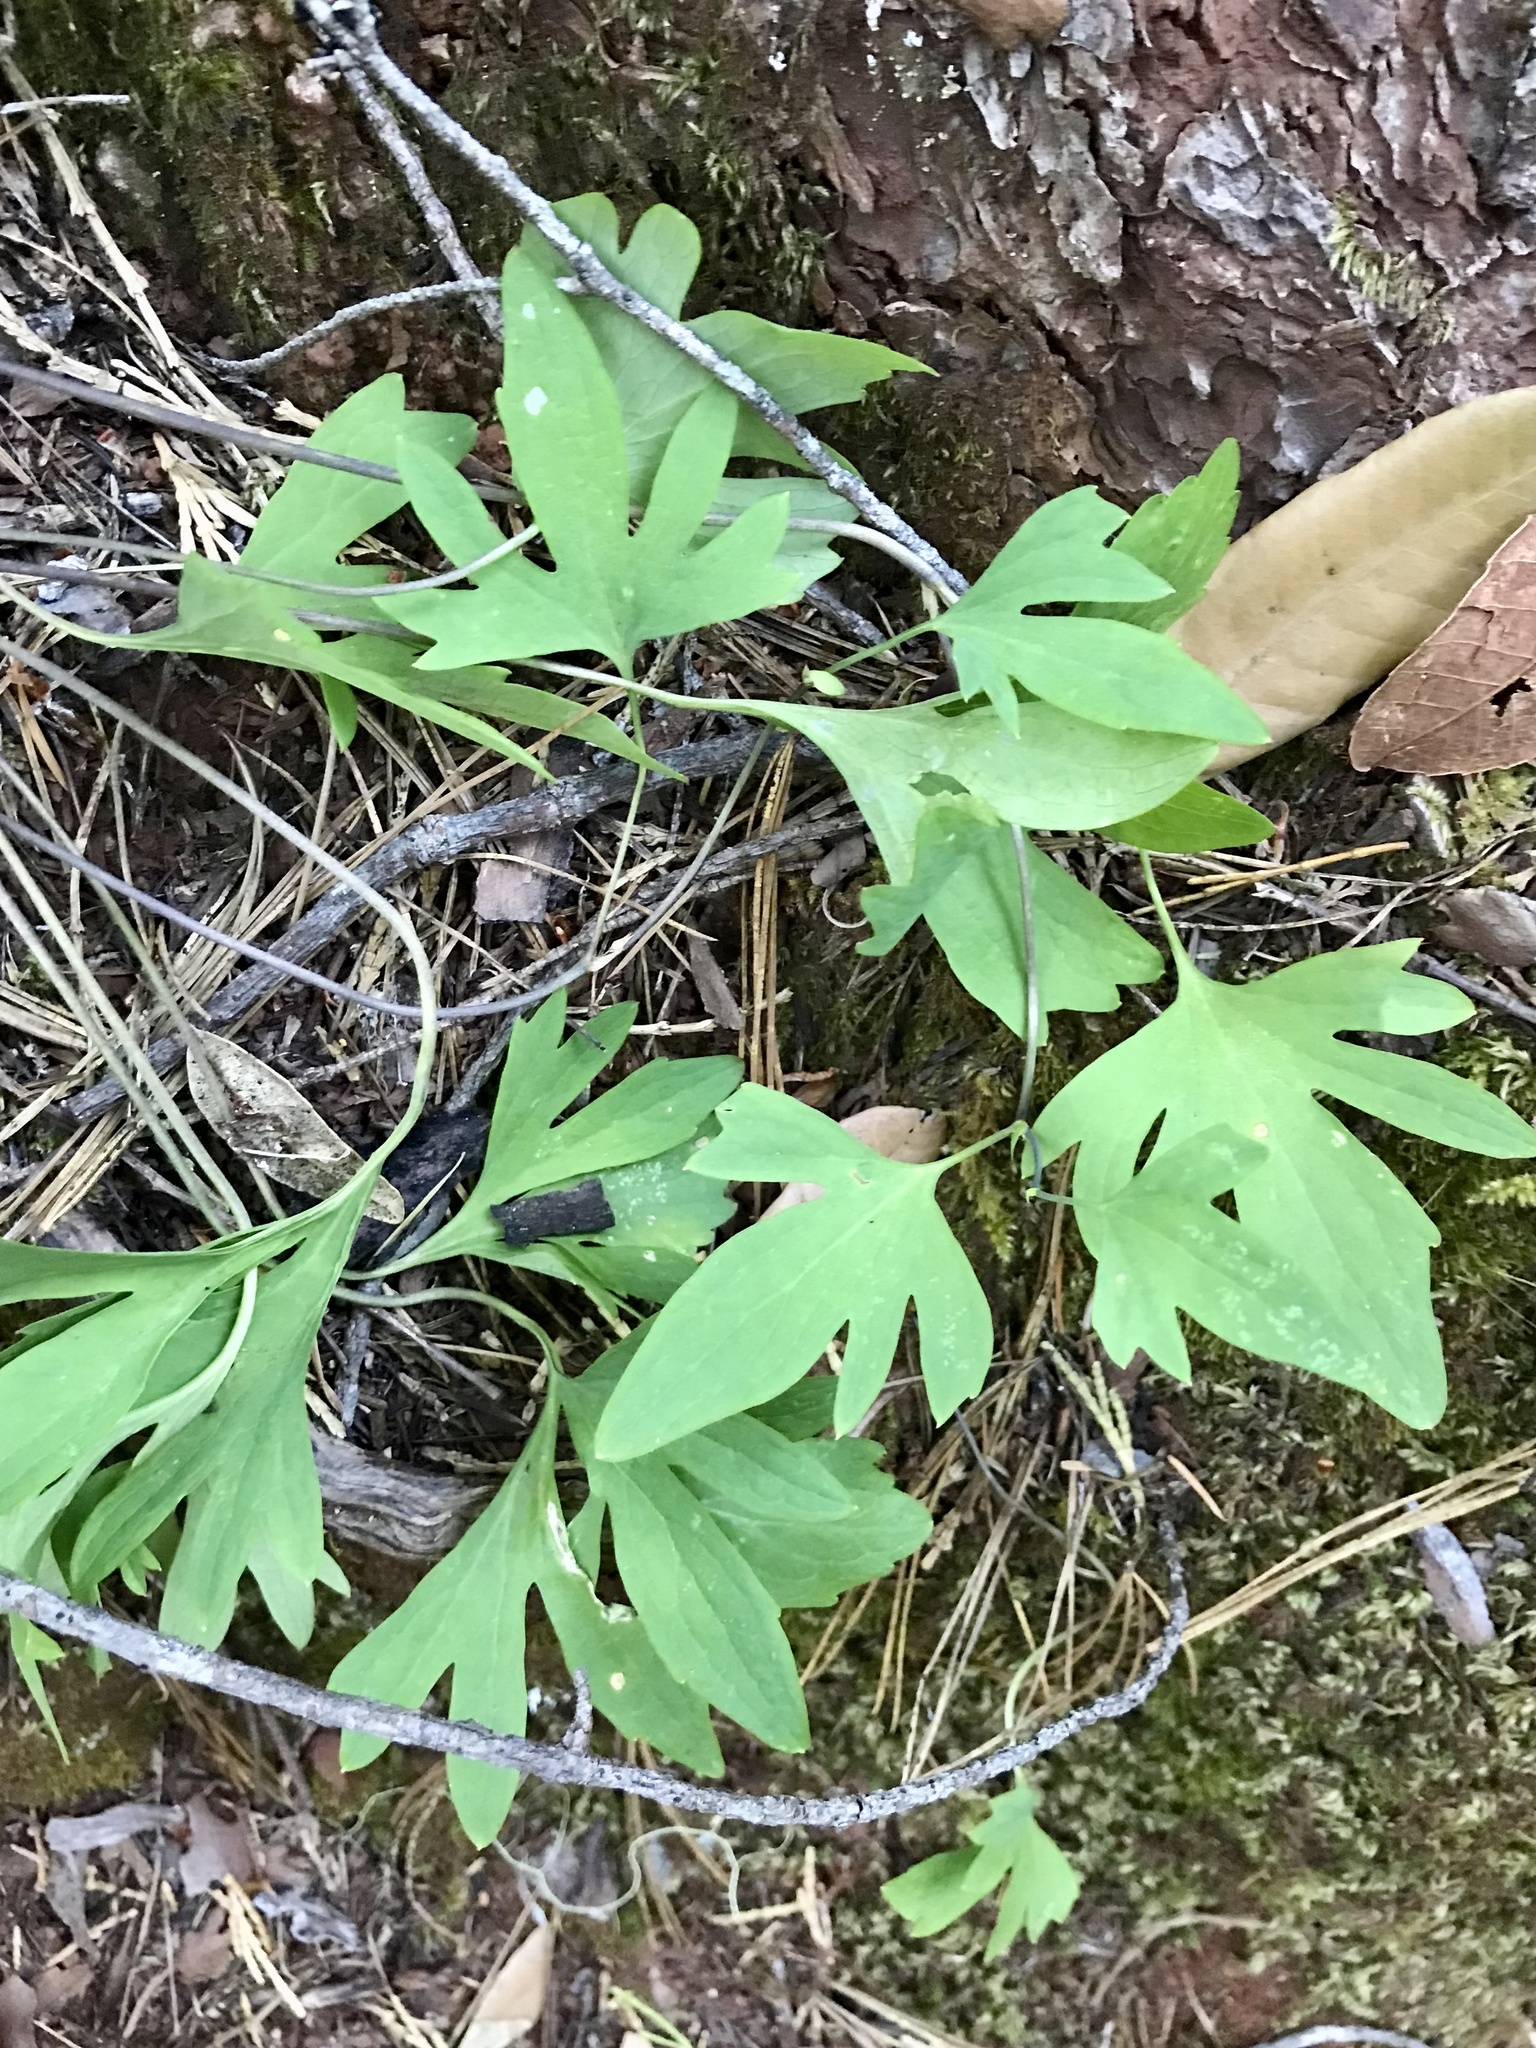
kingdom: Plantae
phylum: Tracheophyta
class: Magnoliopsida
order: Malpighiales
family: Violaceae
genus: Viola
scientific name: Viola lobata
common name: Pine violet
